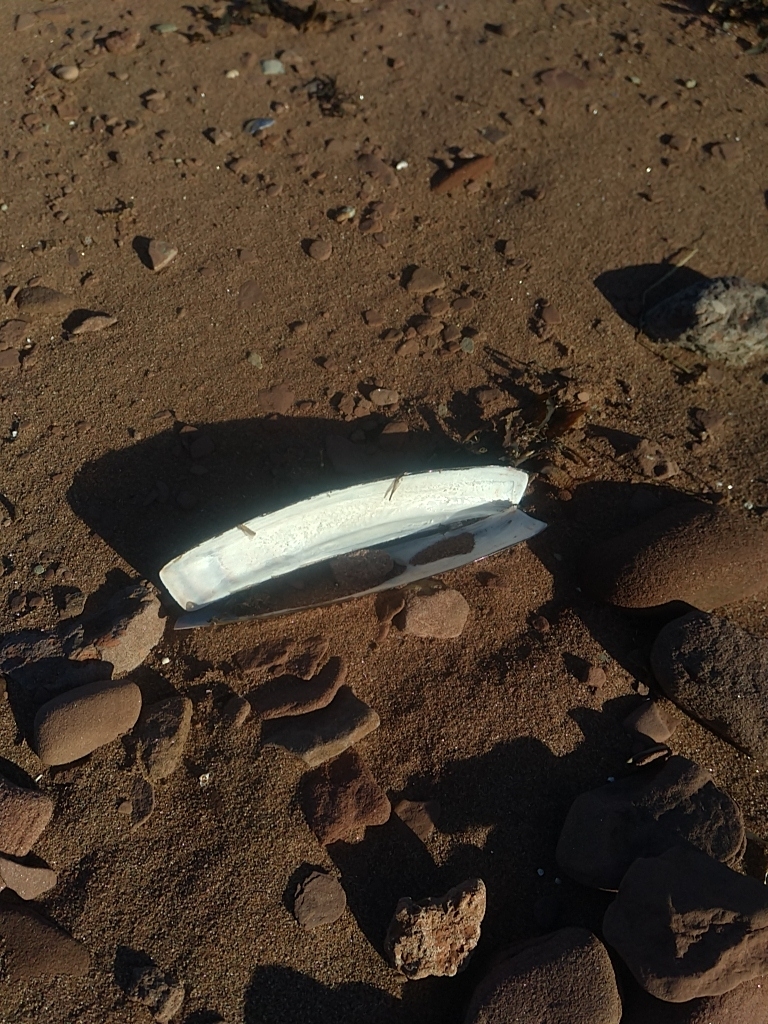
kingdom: Animalia
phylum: Mollusca
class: Bivalvia
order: Adapedonta
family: Pharidae
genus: Ensis
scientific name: Ensis leei
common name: American jack knife clam
